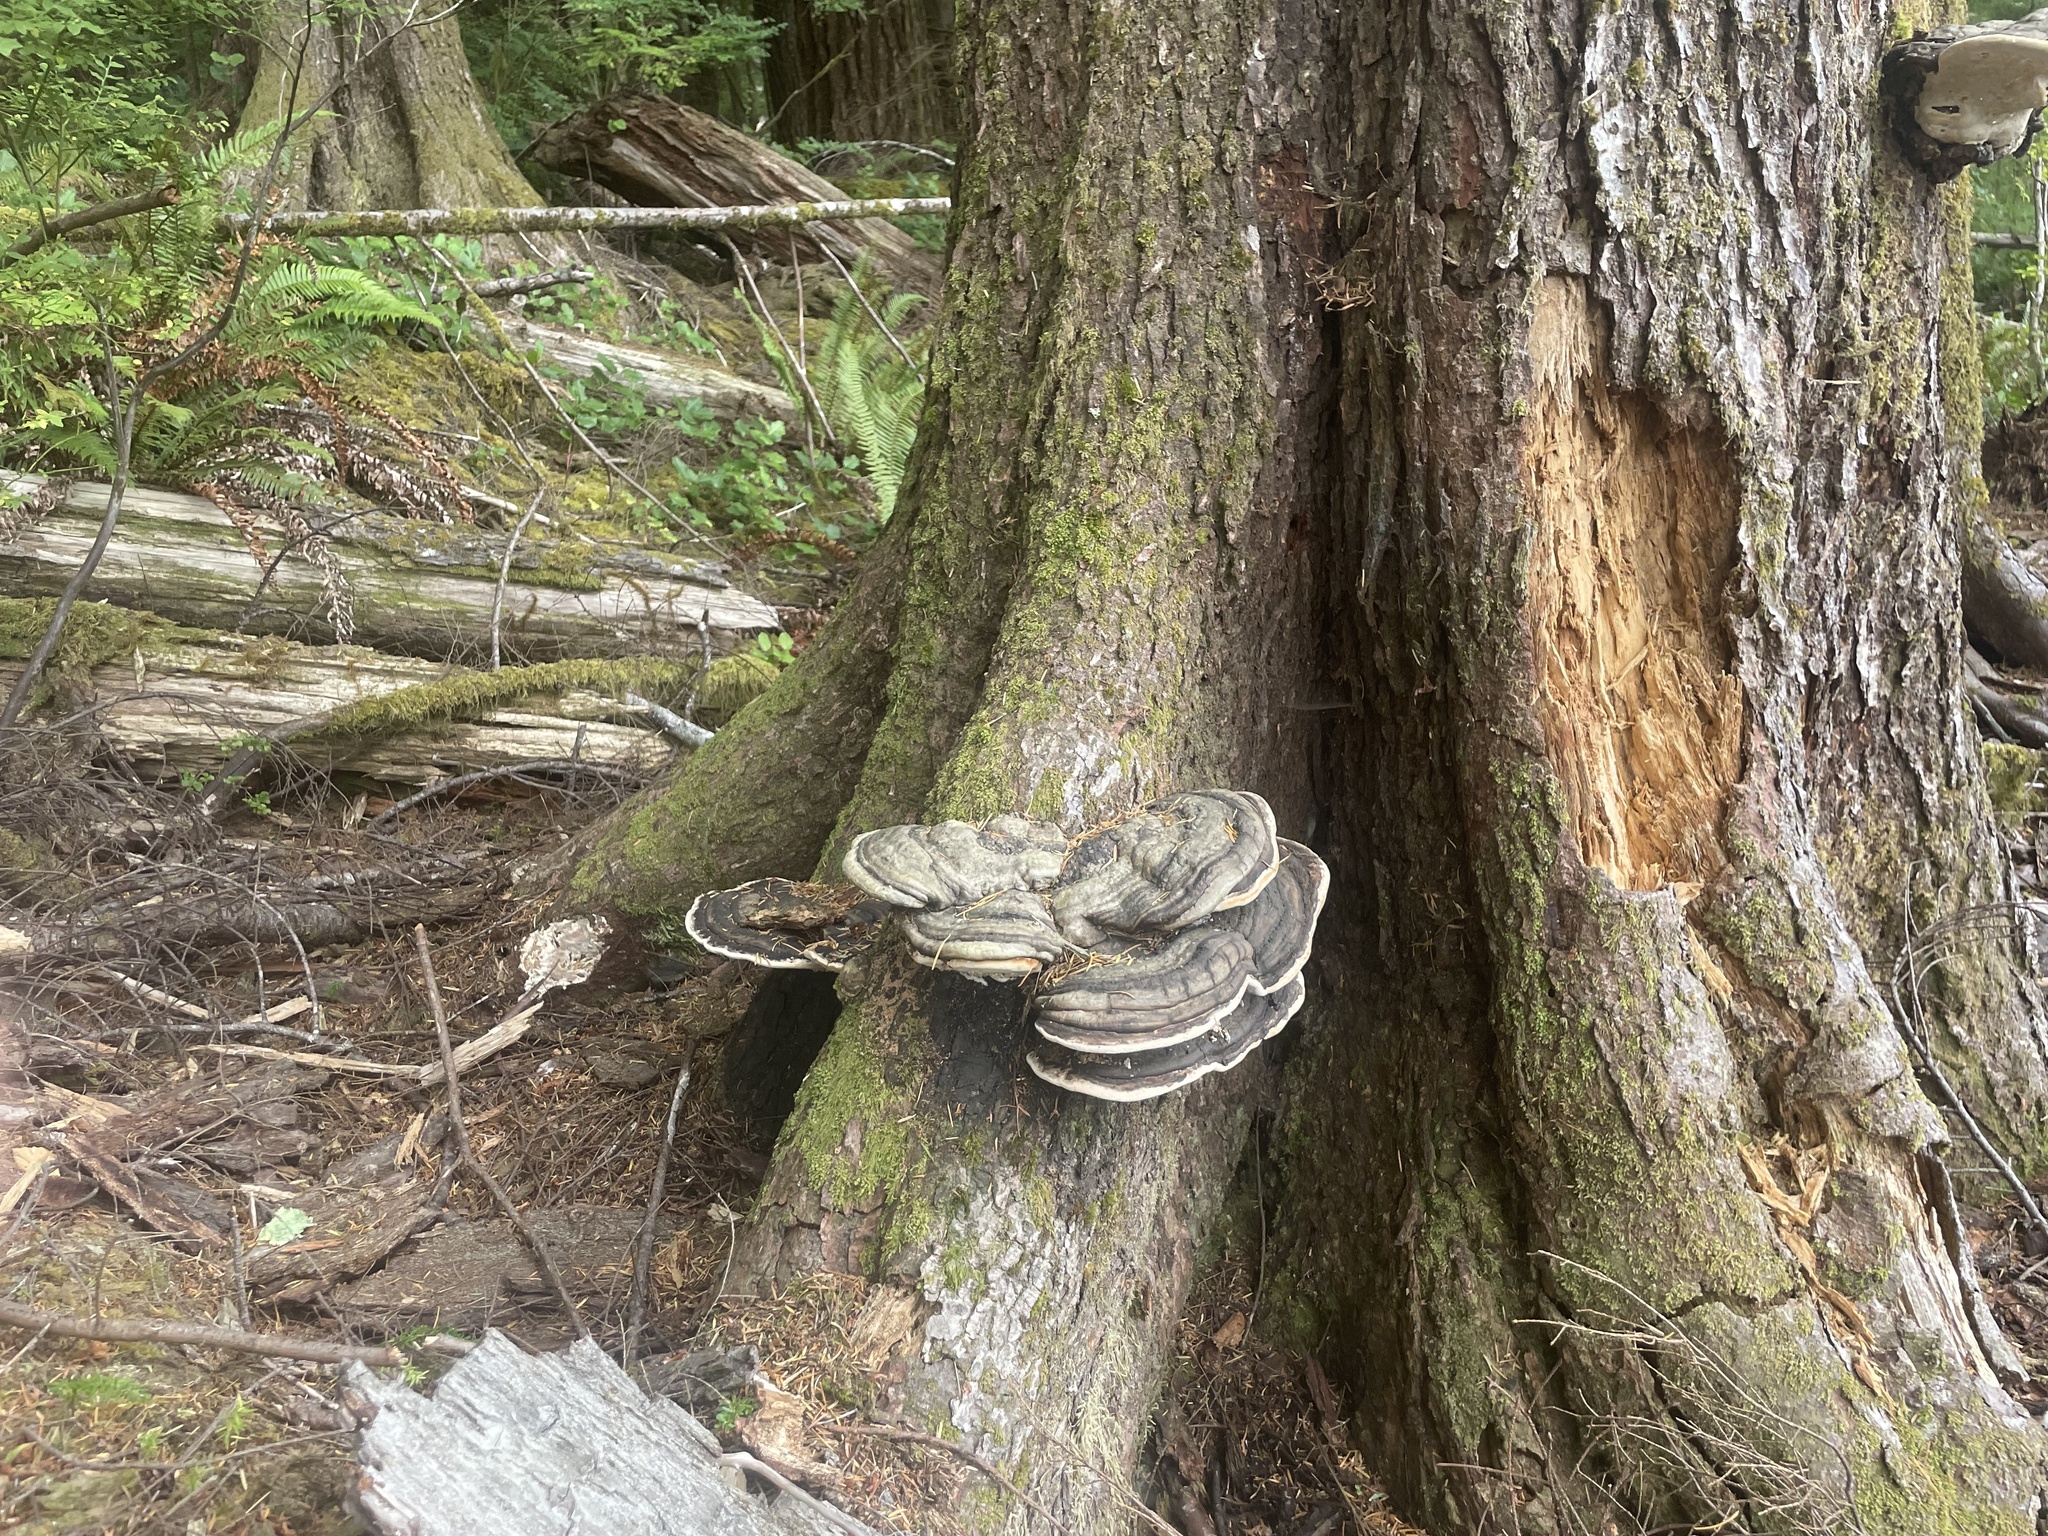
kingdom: Fungi
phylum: Basidiomycota
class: Agaricomycetes
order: Polyporales
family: Fomitopsidaceae
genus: Fomitopsis
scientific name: Fomitopsis ochracea
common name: American brown fomitopsis
